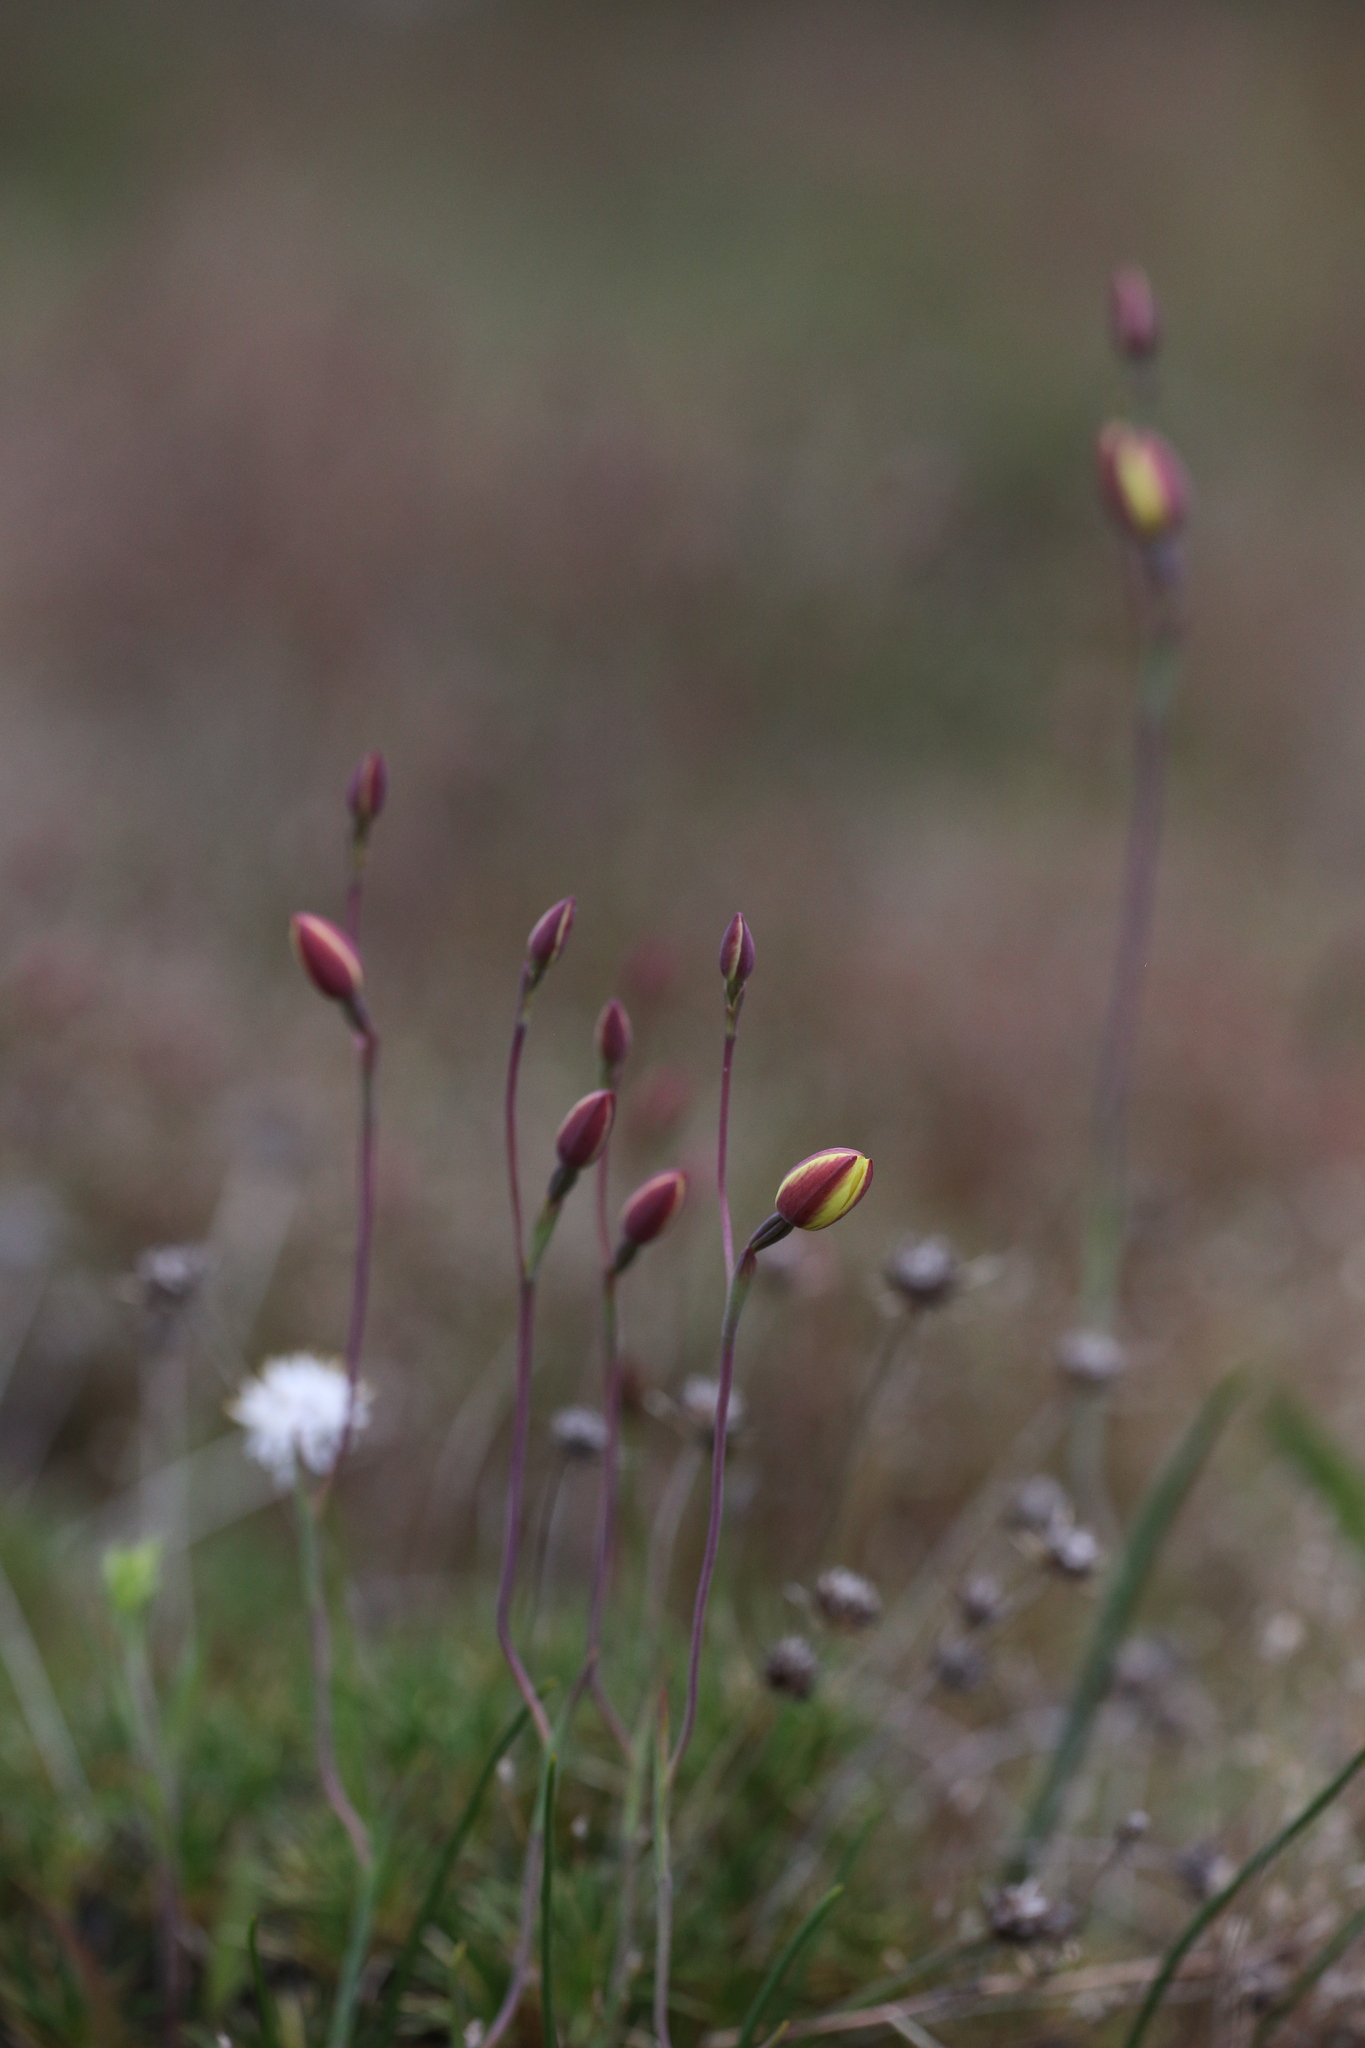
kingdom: Plantae
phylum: Tracheophyta
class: Liliopsida
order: Asparagales
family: Orchidaceae
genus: Thelymitra
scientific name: Thelymitra antennifera
